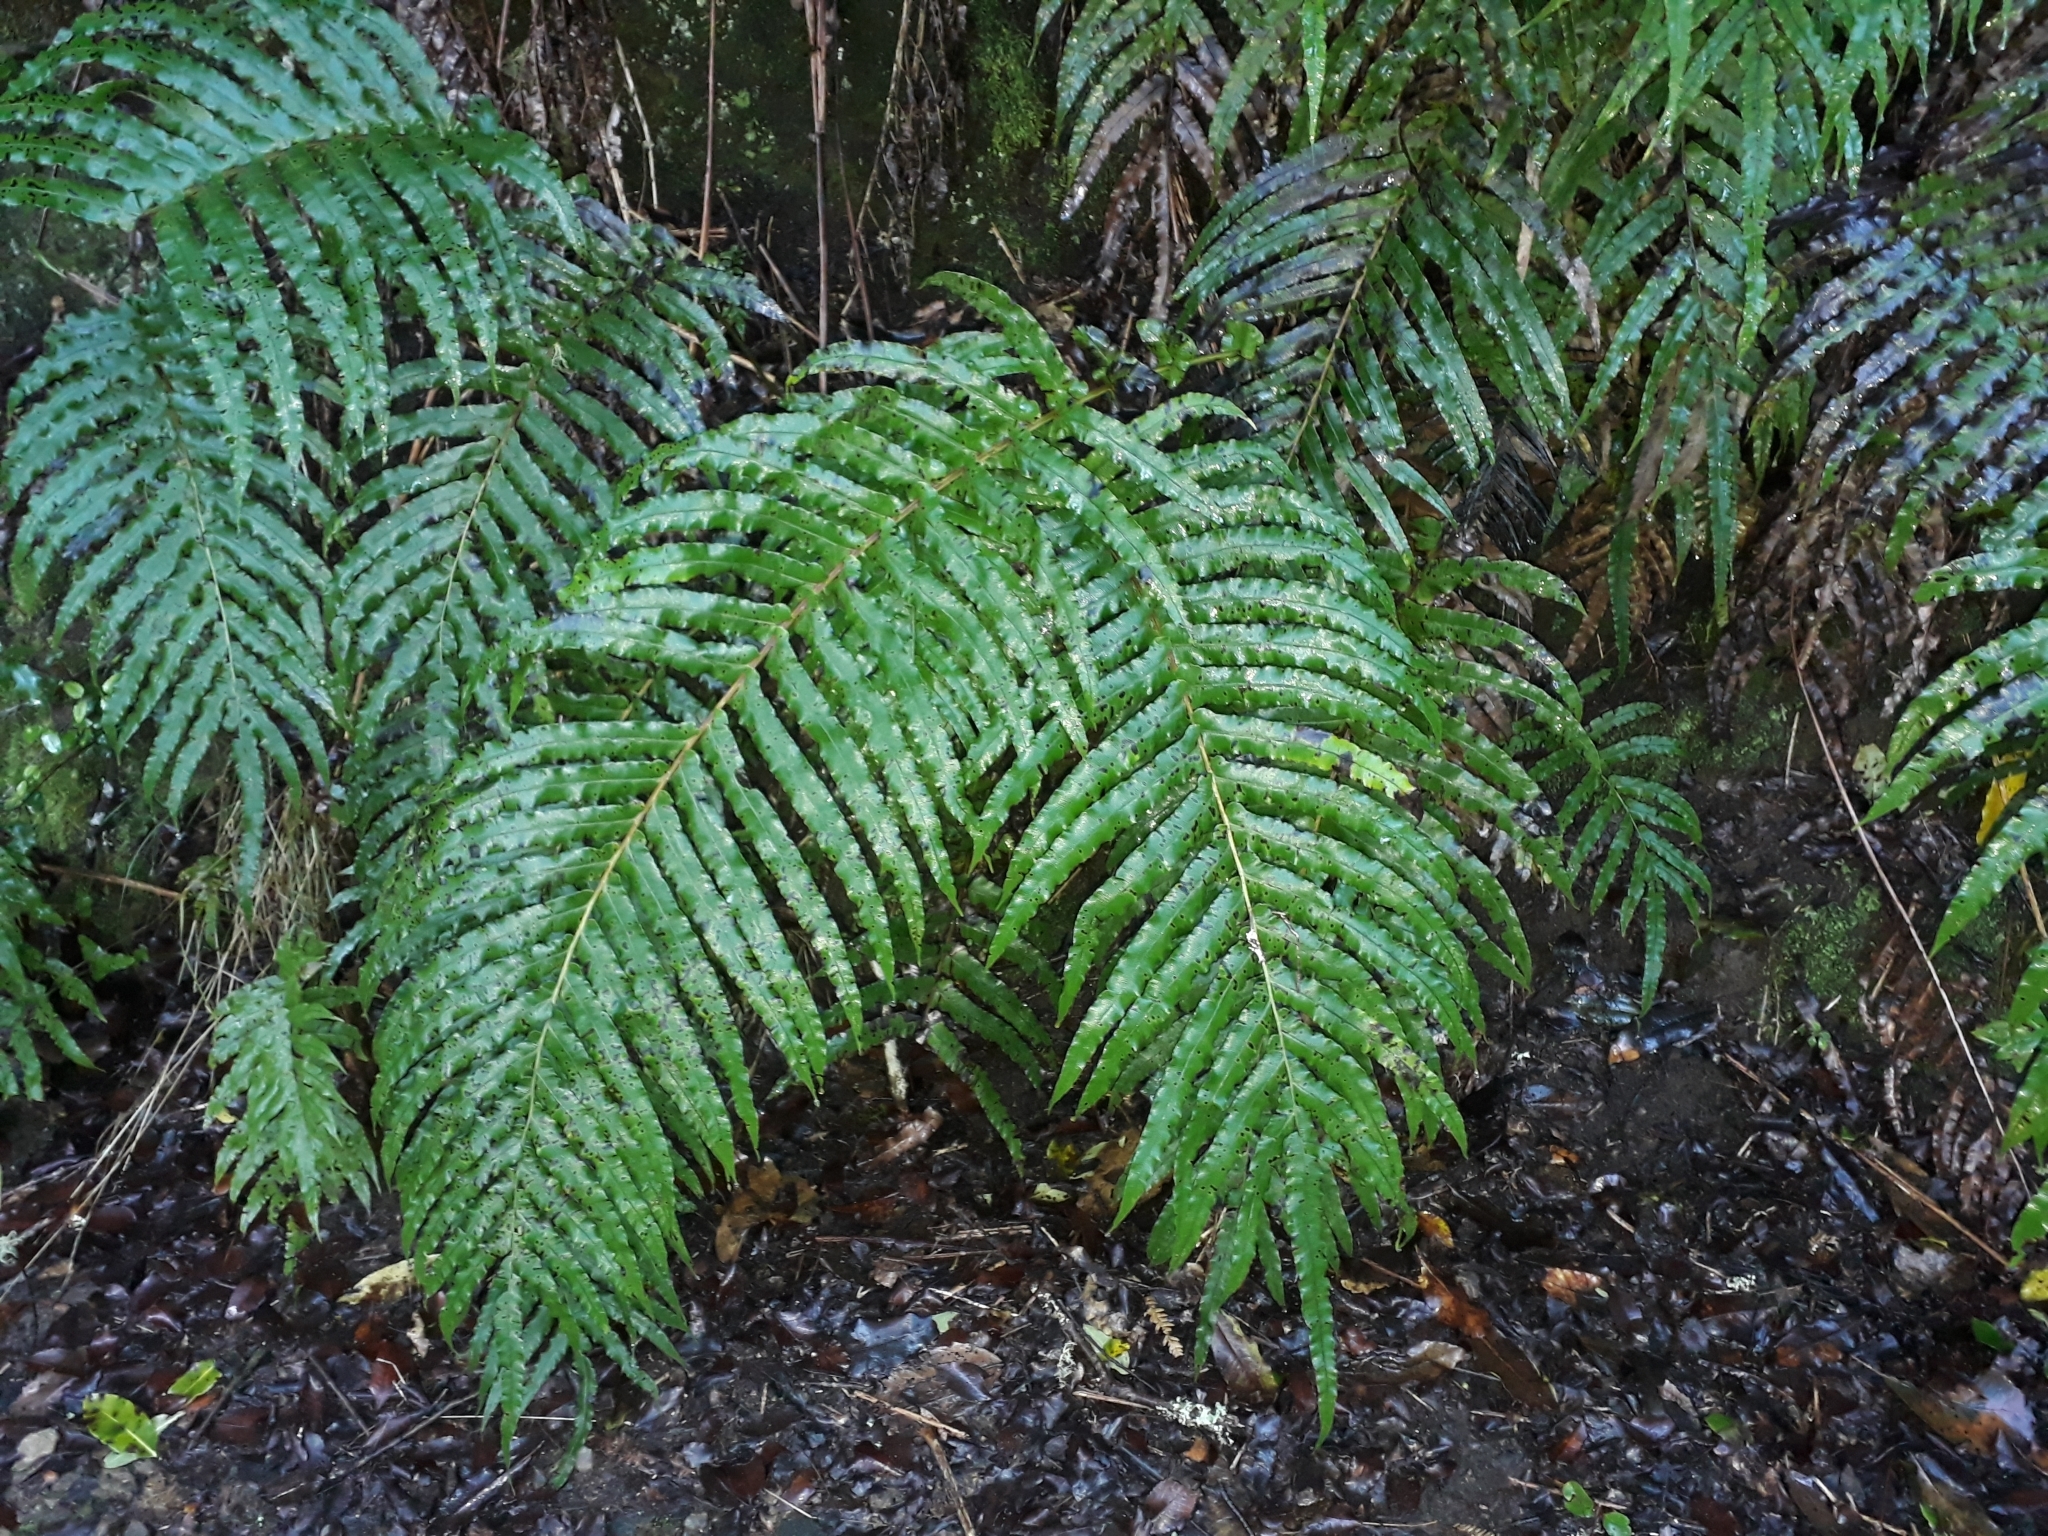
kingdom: Plantae
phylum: Tracheophyta
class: Polypodiopsida
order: Polypodiales
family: Blechnaceae
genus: Parablechnum
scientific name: Parablechnum novae-zelandiae
